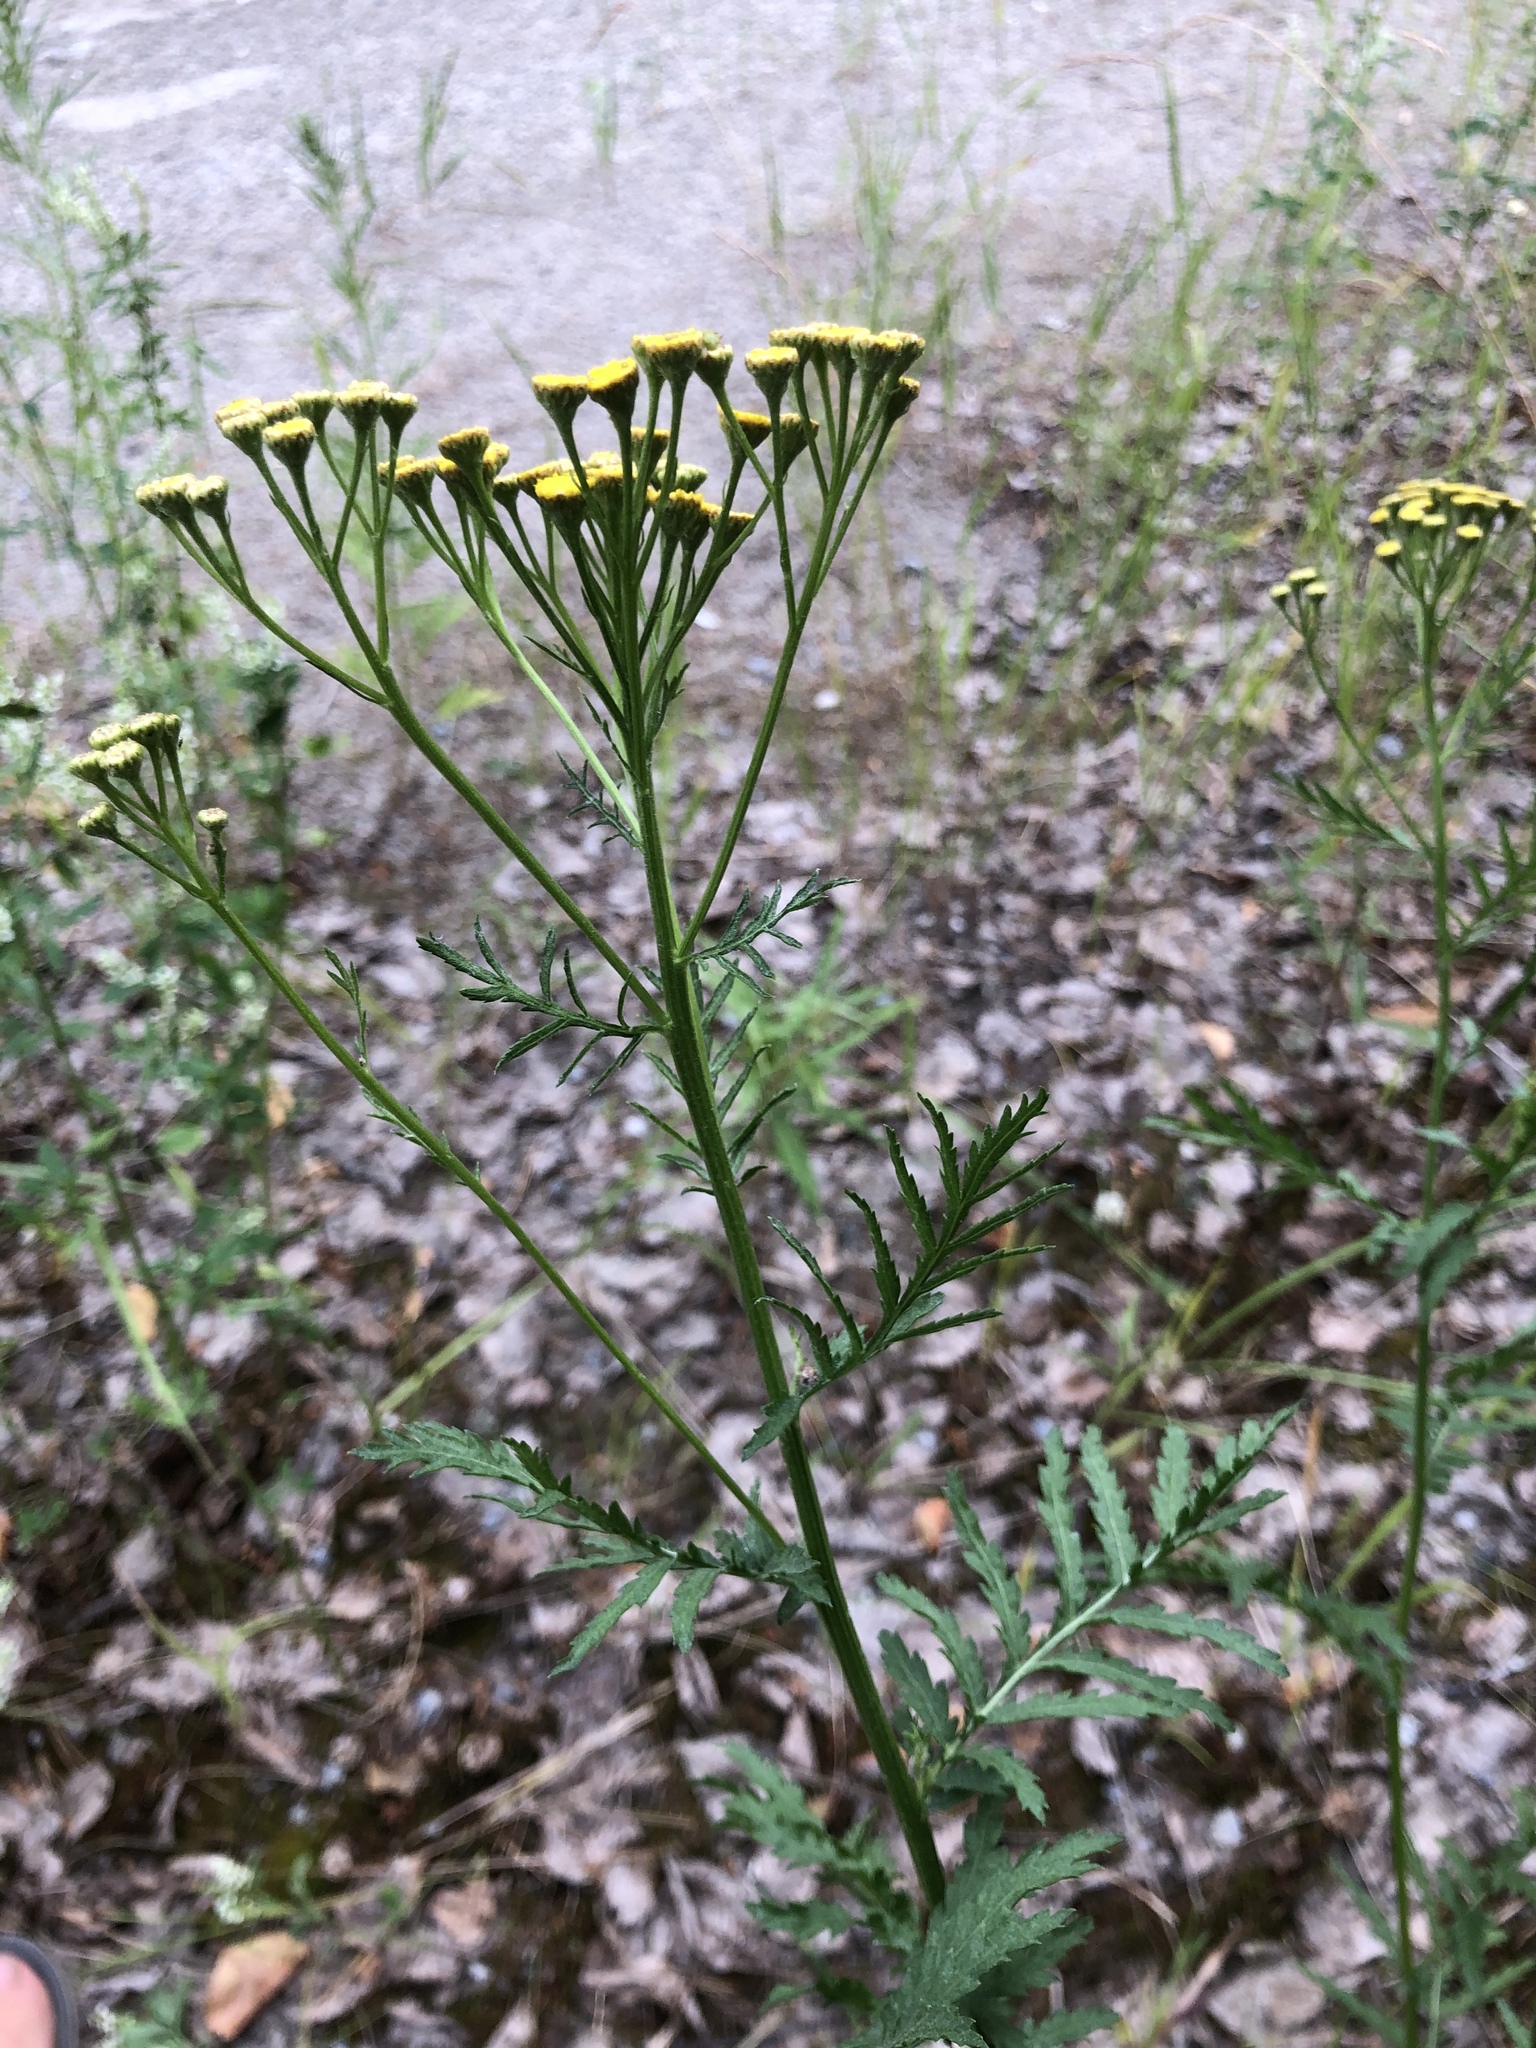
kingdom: Plantae
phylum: Tracheophyta
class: Magnoliopsida
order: Asterales
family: Asteraceae
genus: Tanacetum
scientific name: Tanacetum vulgare
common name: Common tansy
